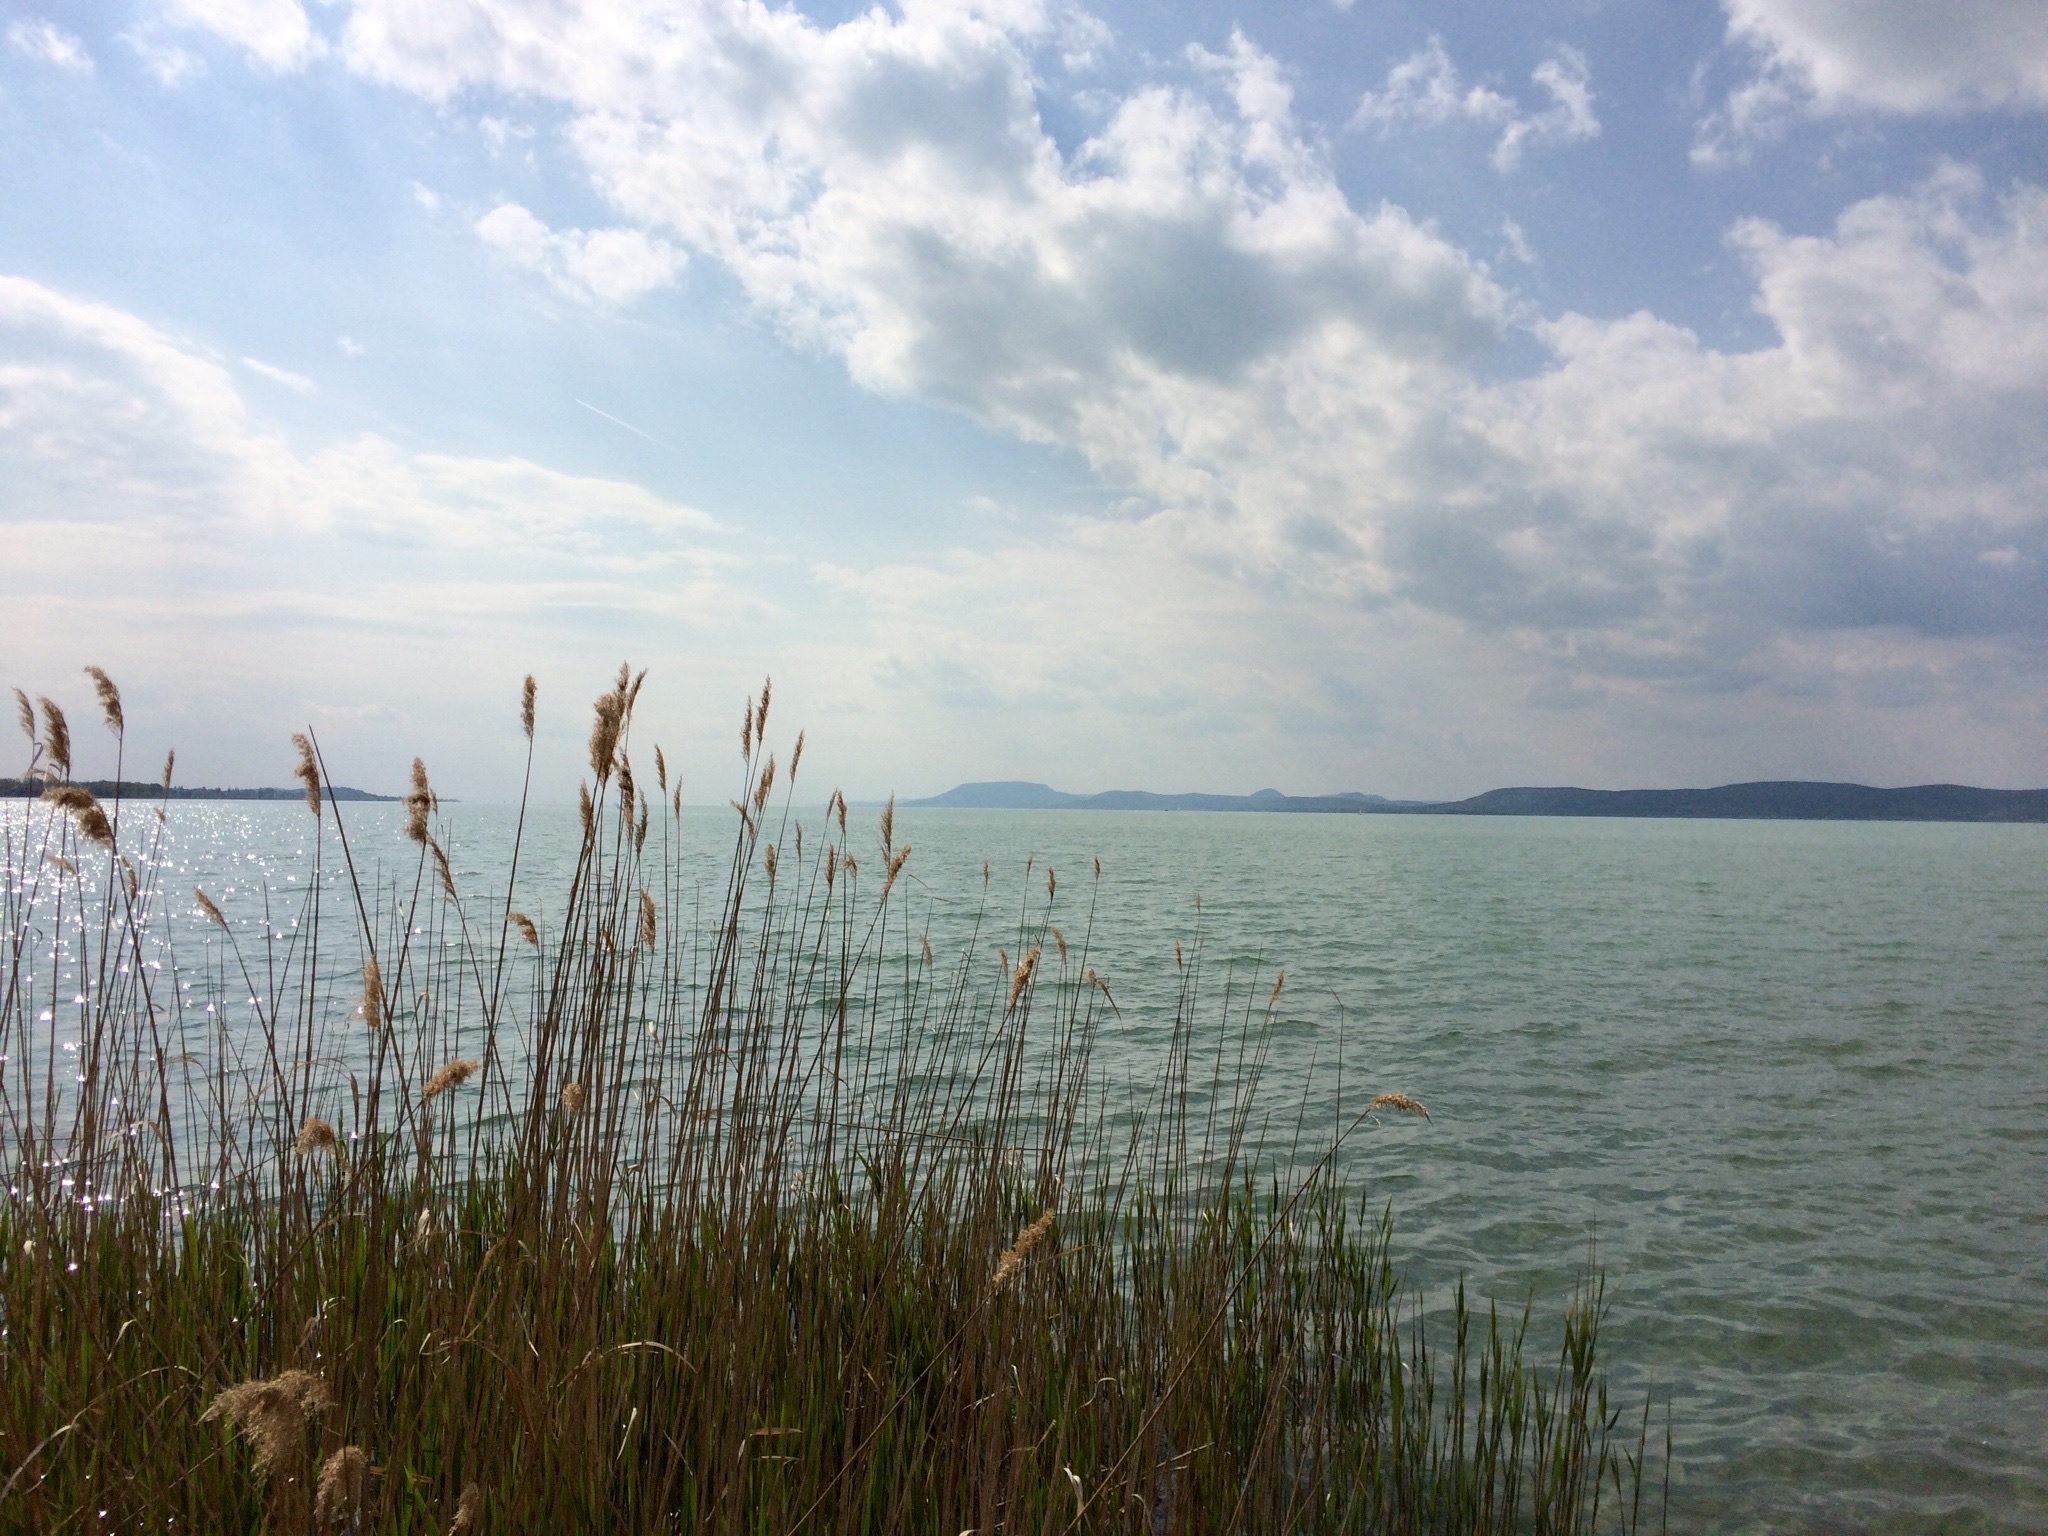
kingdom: Plantae
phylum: Tracheophyta
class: Liliopsida
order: Poales
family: Poaceae
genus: Phragmites
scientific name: Phragmites australis
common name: Common reed
